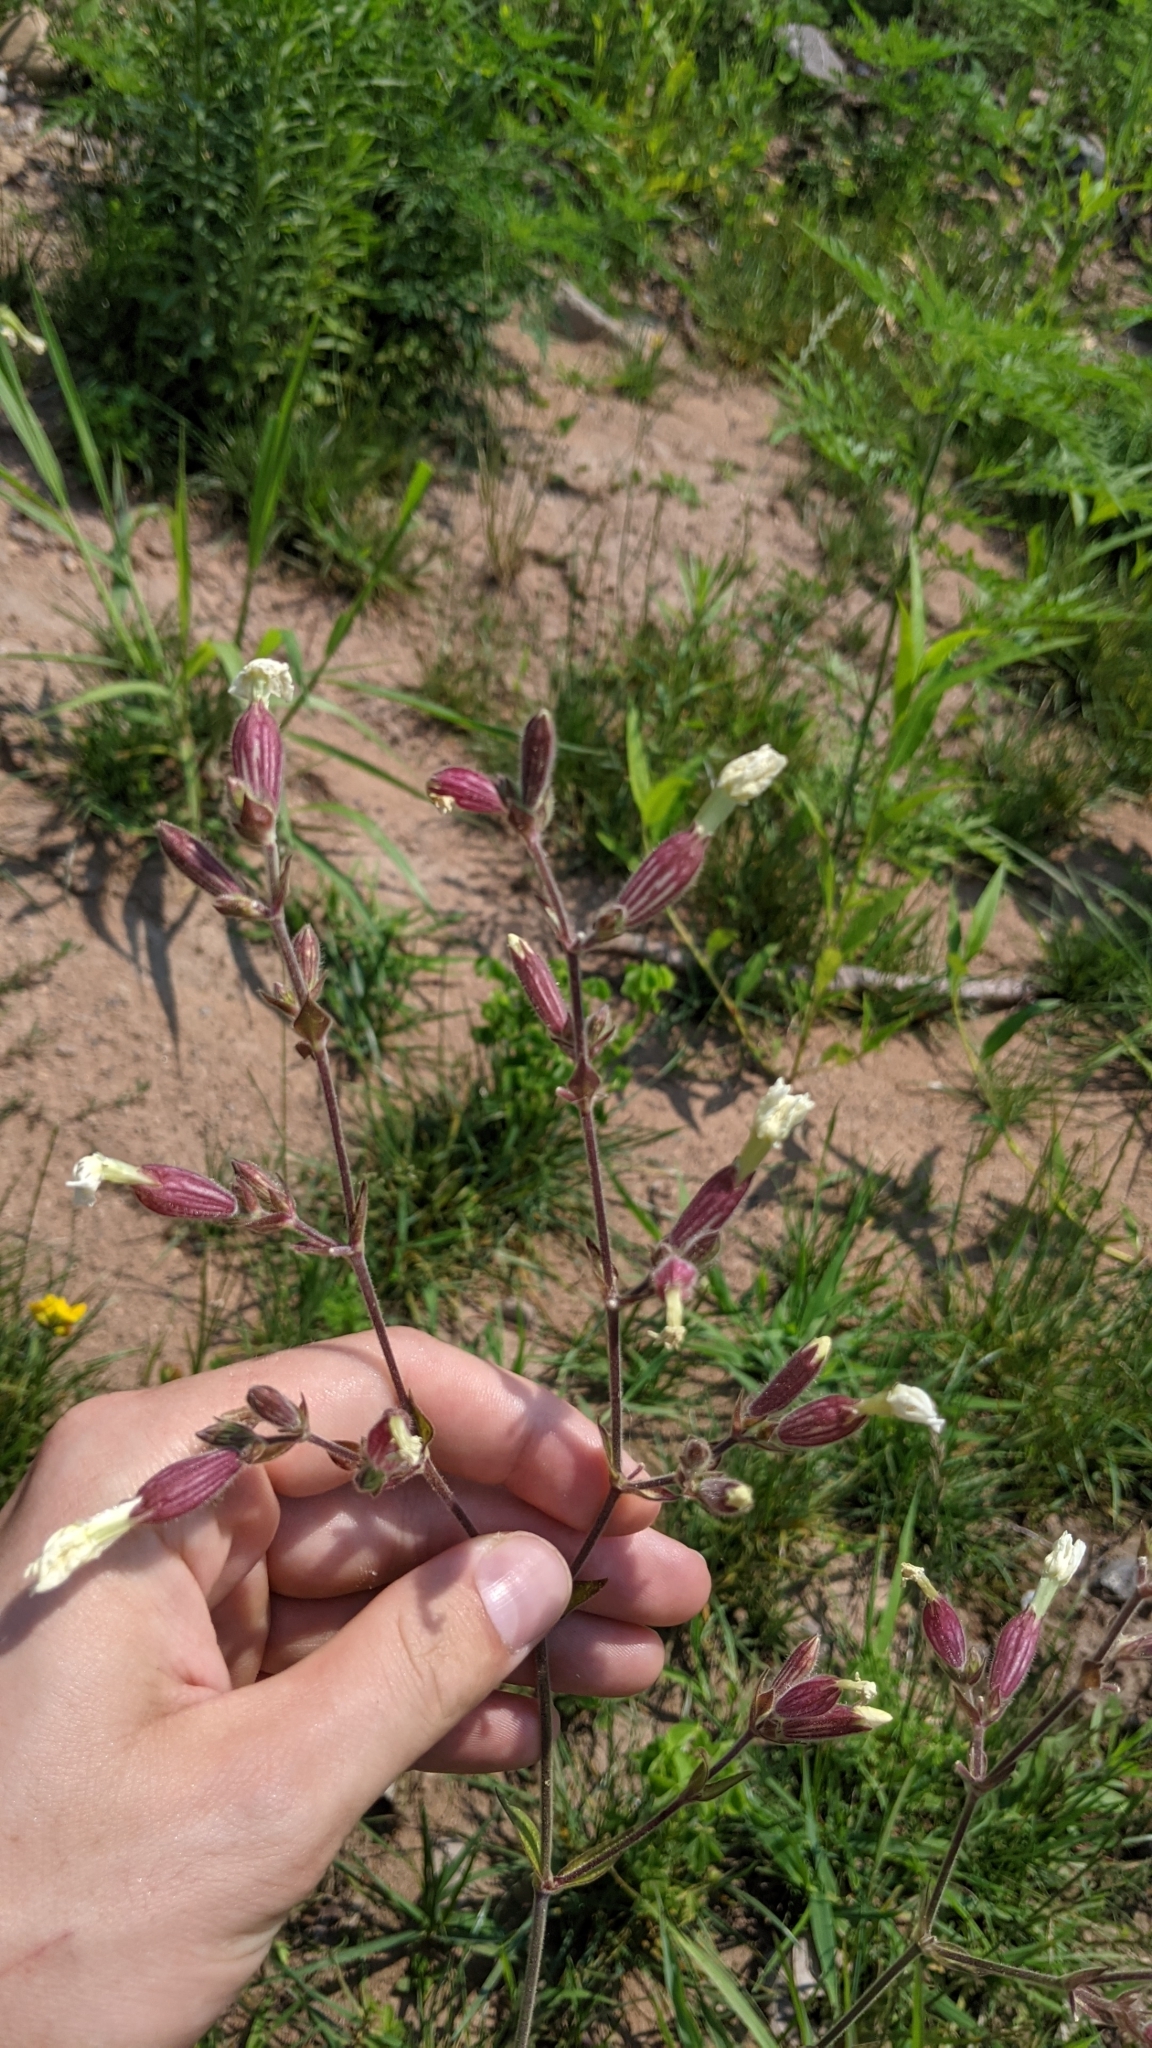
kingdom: Plantae
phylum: Tracheophyta
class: Magnoliopsida
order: Caryophyllales
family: Caryophyllaceae
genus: Silene
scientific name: Silene latifolia
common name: White campion
